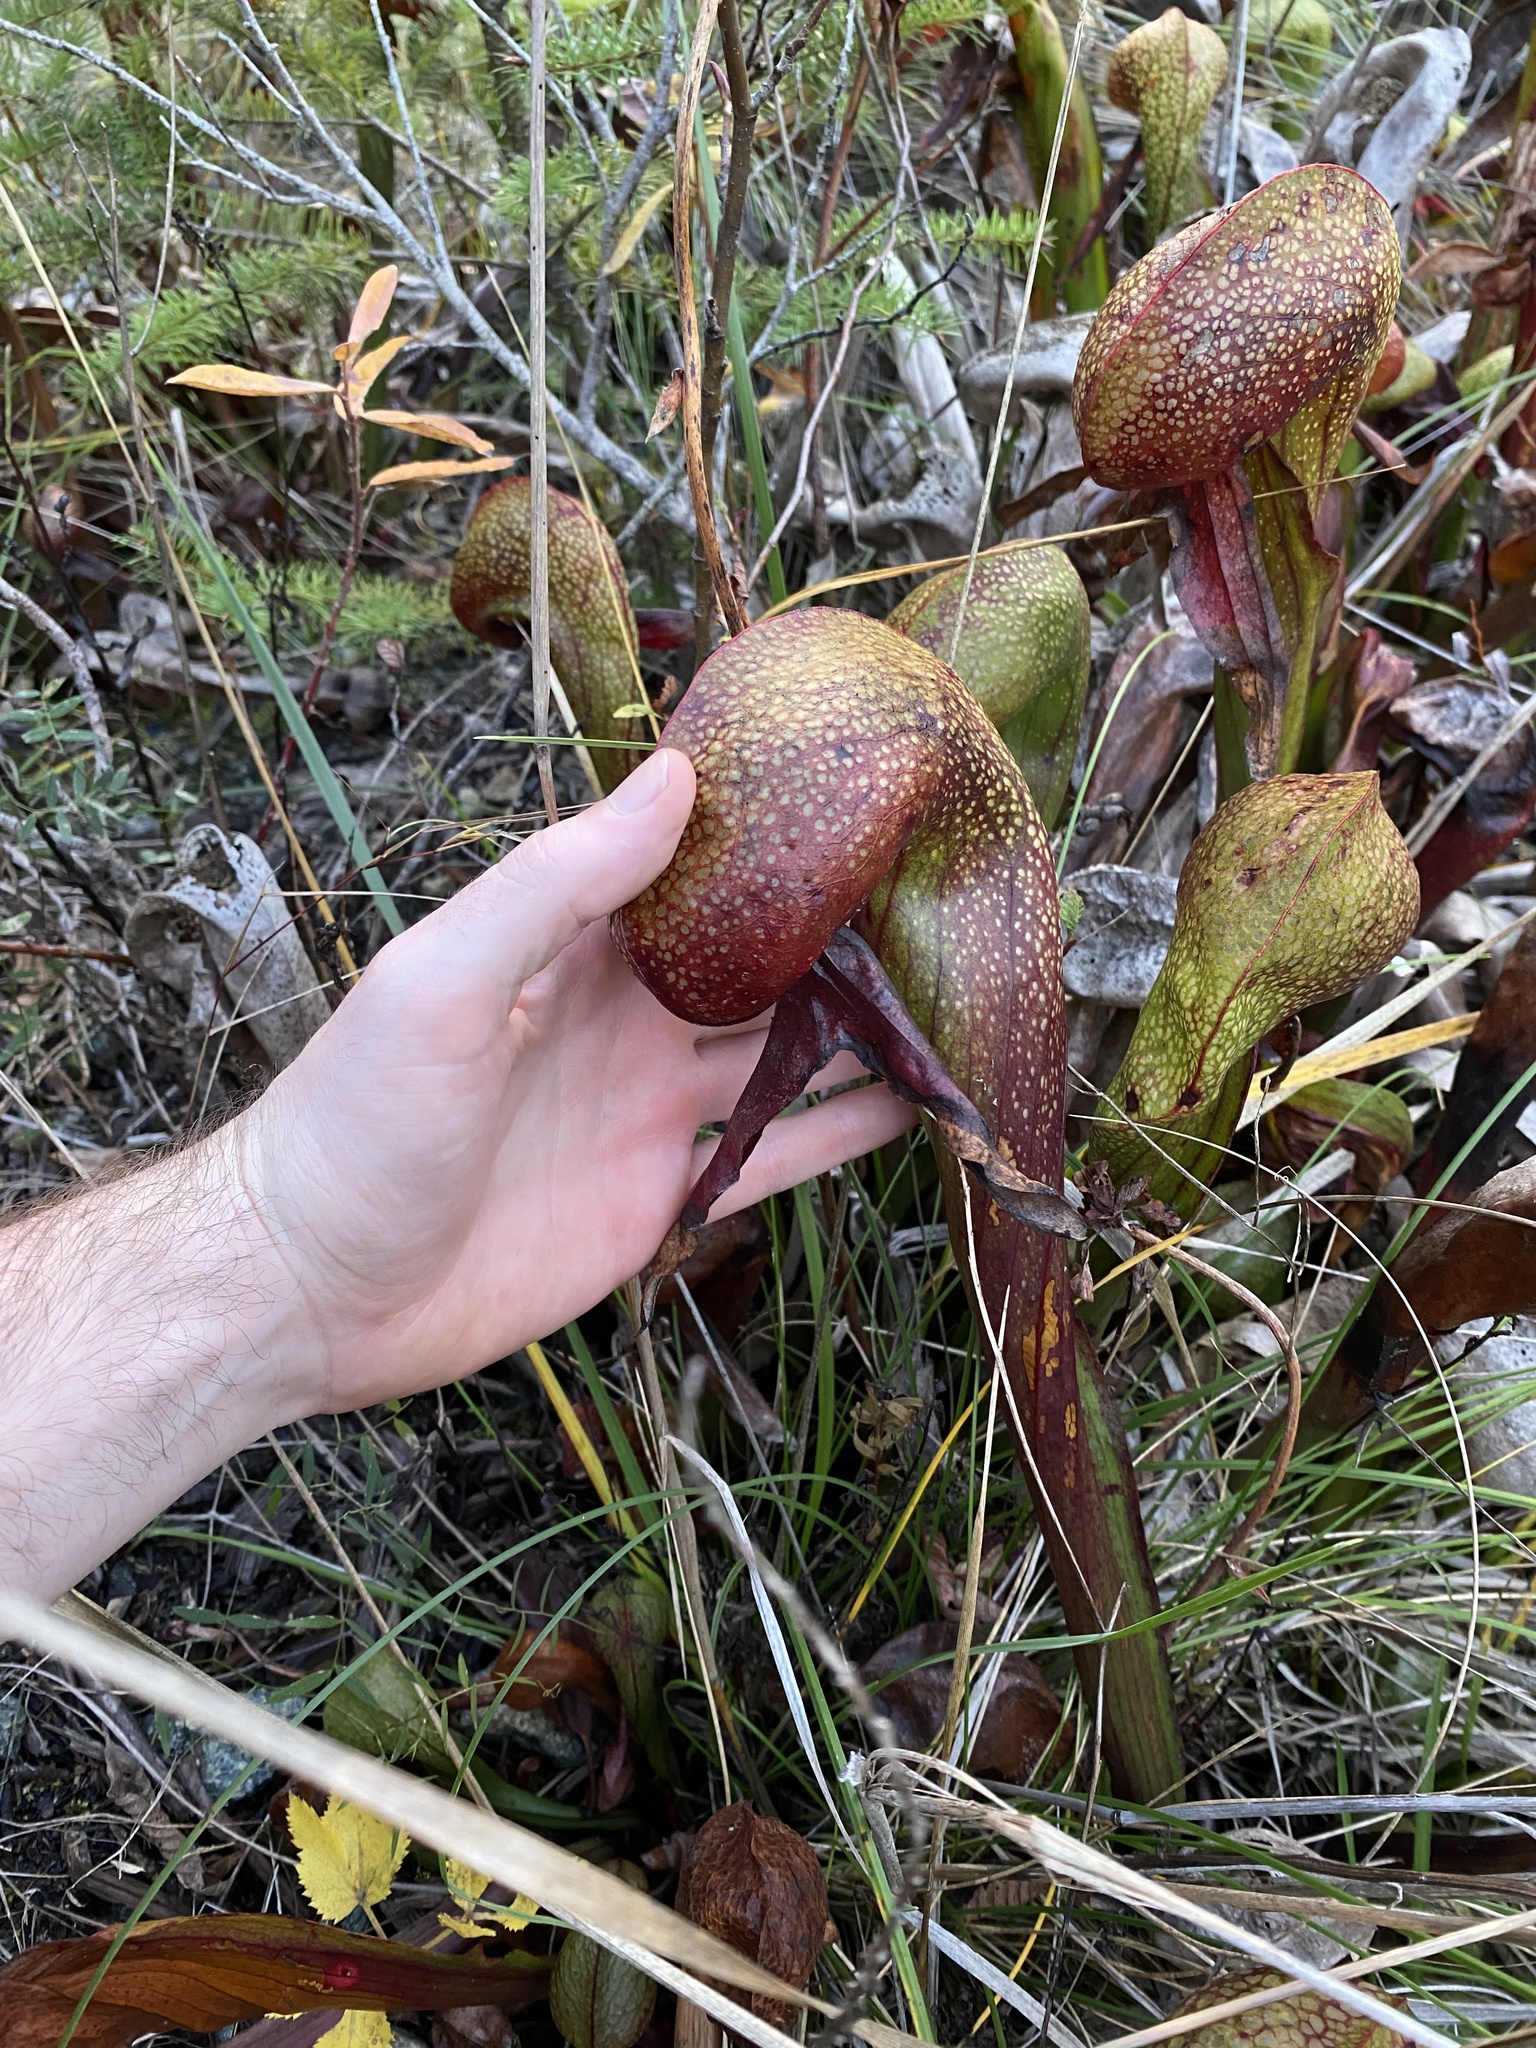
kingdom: Plantae
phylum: Tracheophyta
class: Magnoliopsida
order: Ericales
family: Sarraceniaceae
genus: Darlingtonia
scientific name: Darlingtonia californica
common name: California pitcher plant
